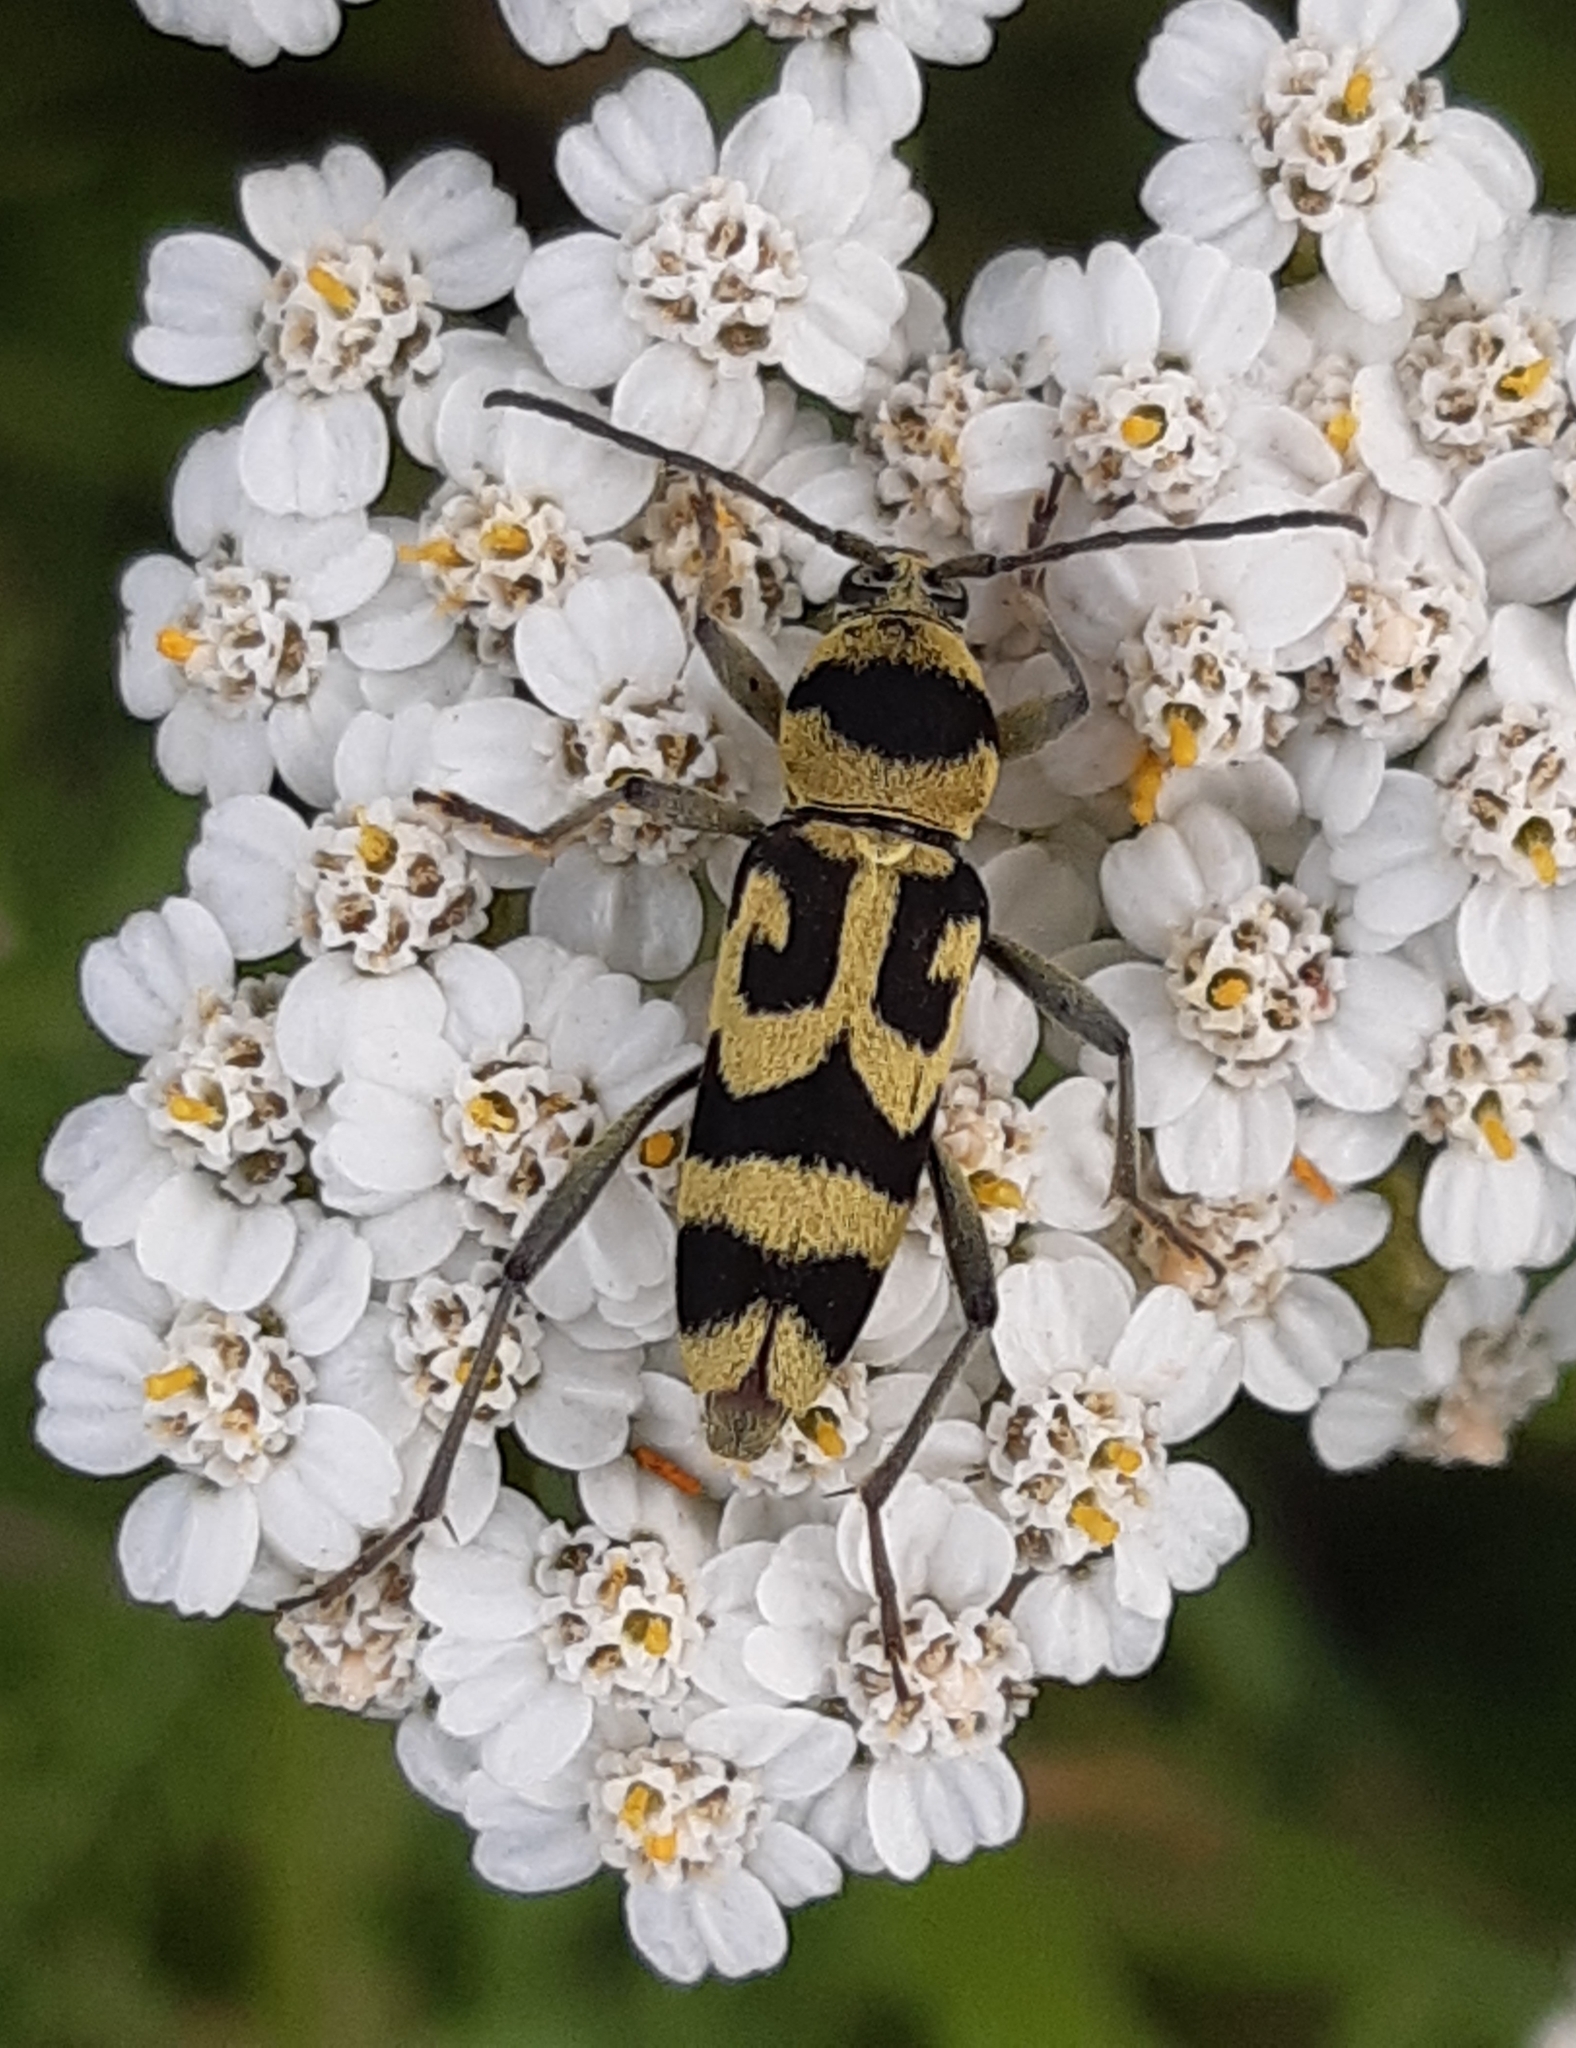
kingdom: Animalia
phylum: Arthropoda
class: Insecta
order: Coleoptera
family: Cerambycidae
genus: Chlorophorus
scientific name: Chlorophorus varius
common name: Grape wood borer
